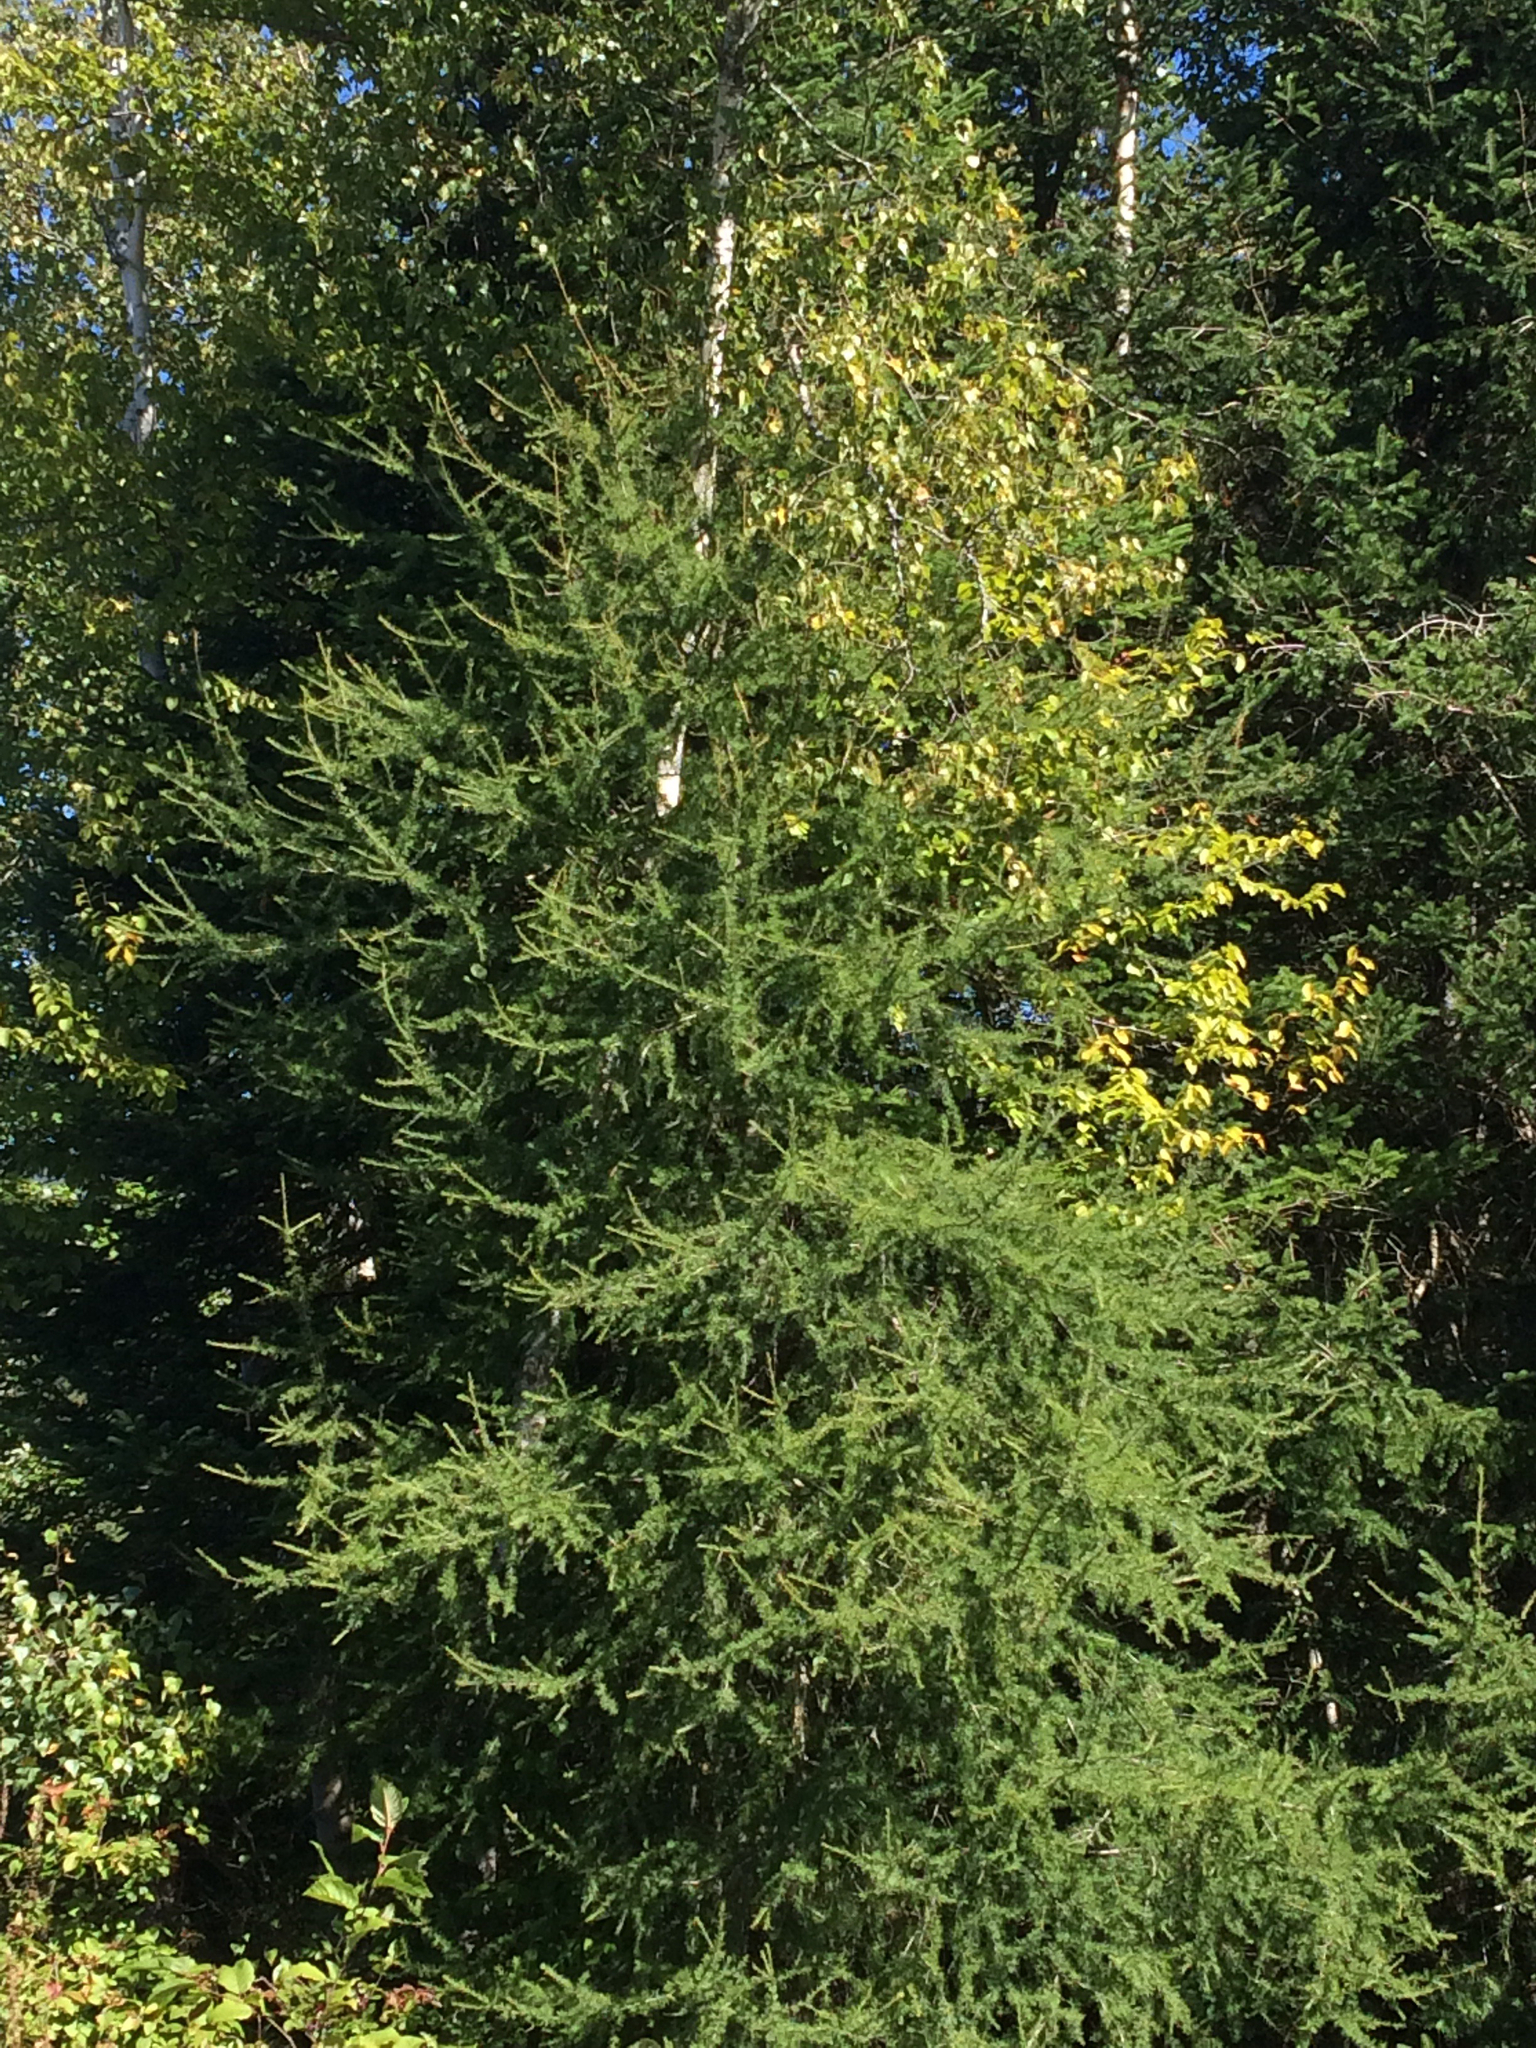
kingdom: Plantae
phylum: Tracheophyta
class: Pinopsida
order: Pinales
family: Pinaceae
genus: Larix
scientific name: Larix laricina
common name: American larch
